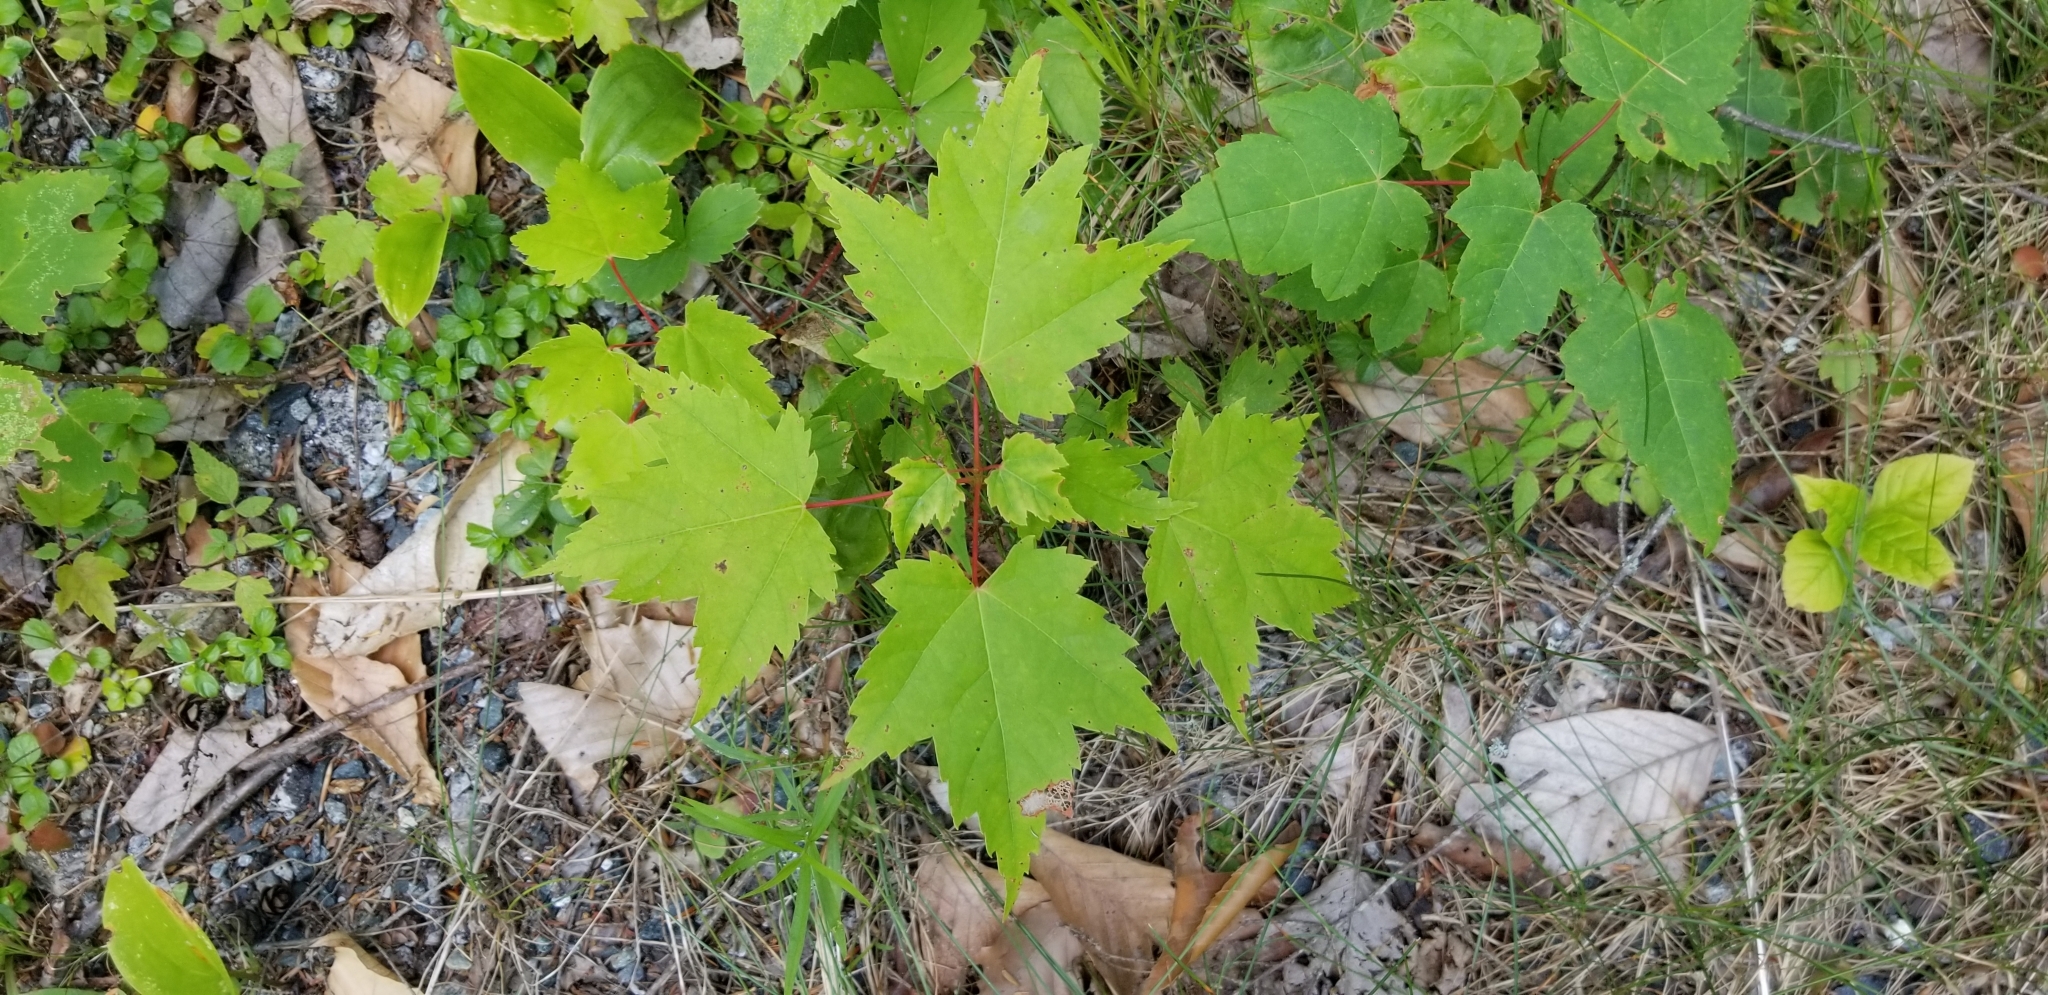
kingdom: Plantae
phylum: Tracheophyta
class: Magnoliopsida
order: Sapindales
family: Sapindaceae
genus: Acer
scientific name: Acer rubrum
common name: Red maple
